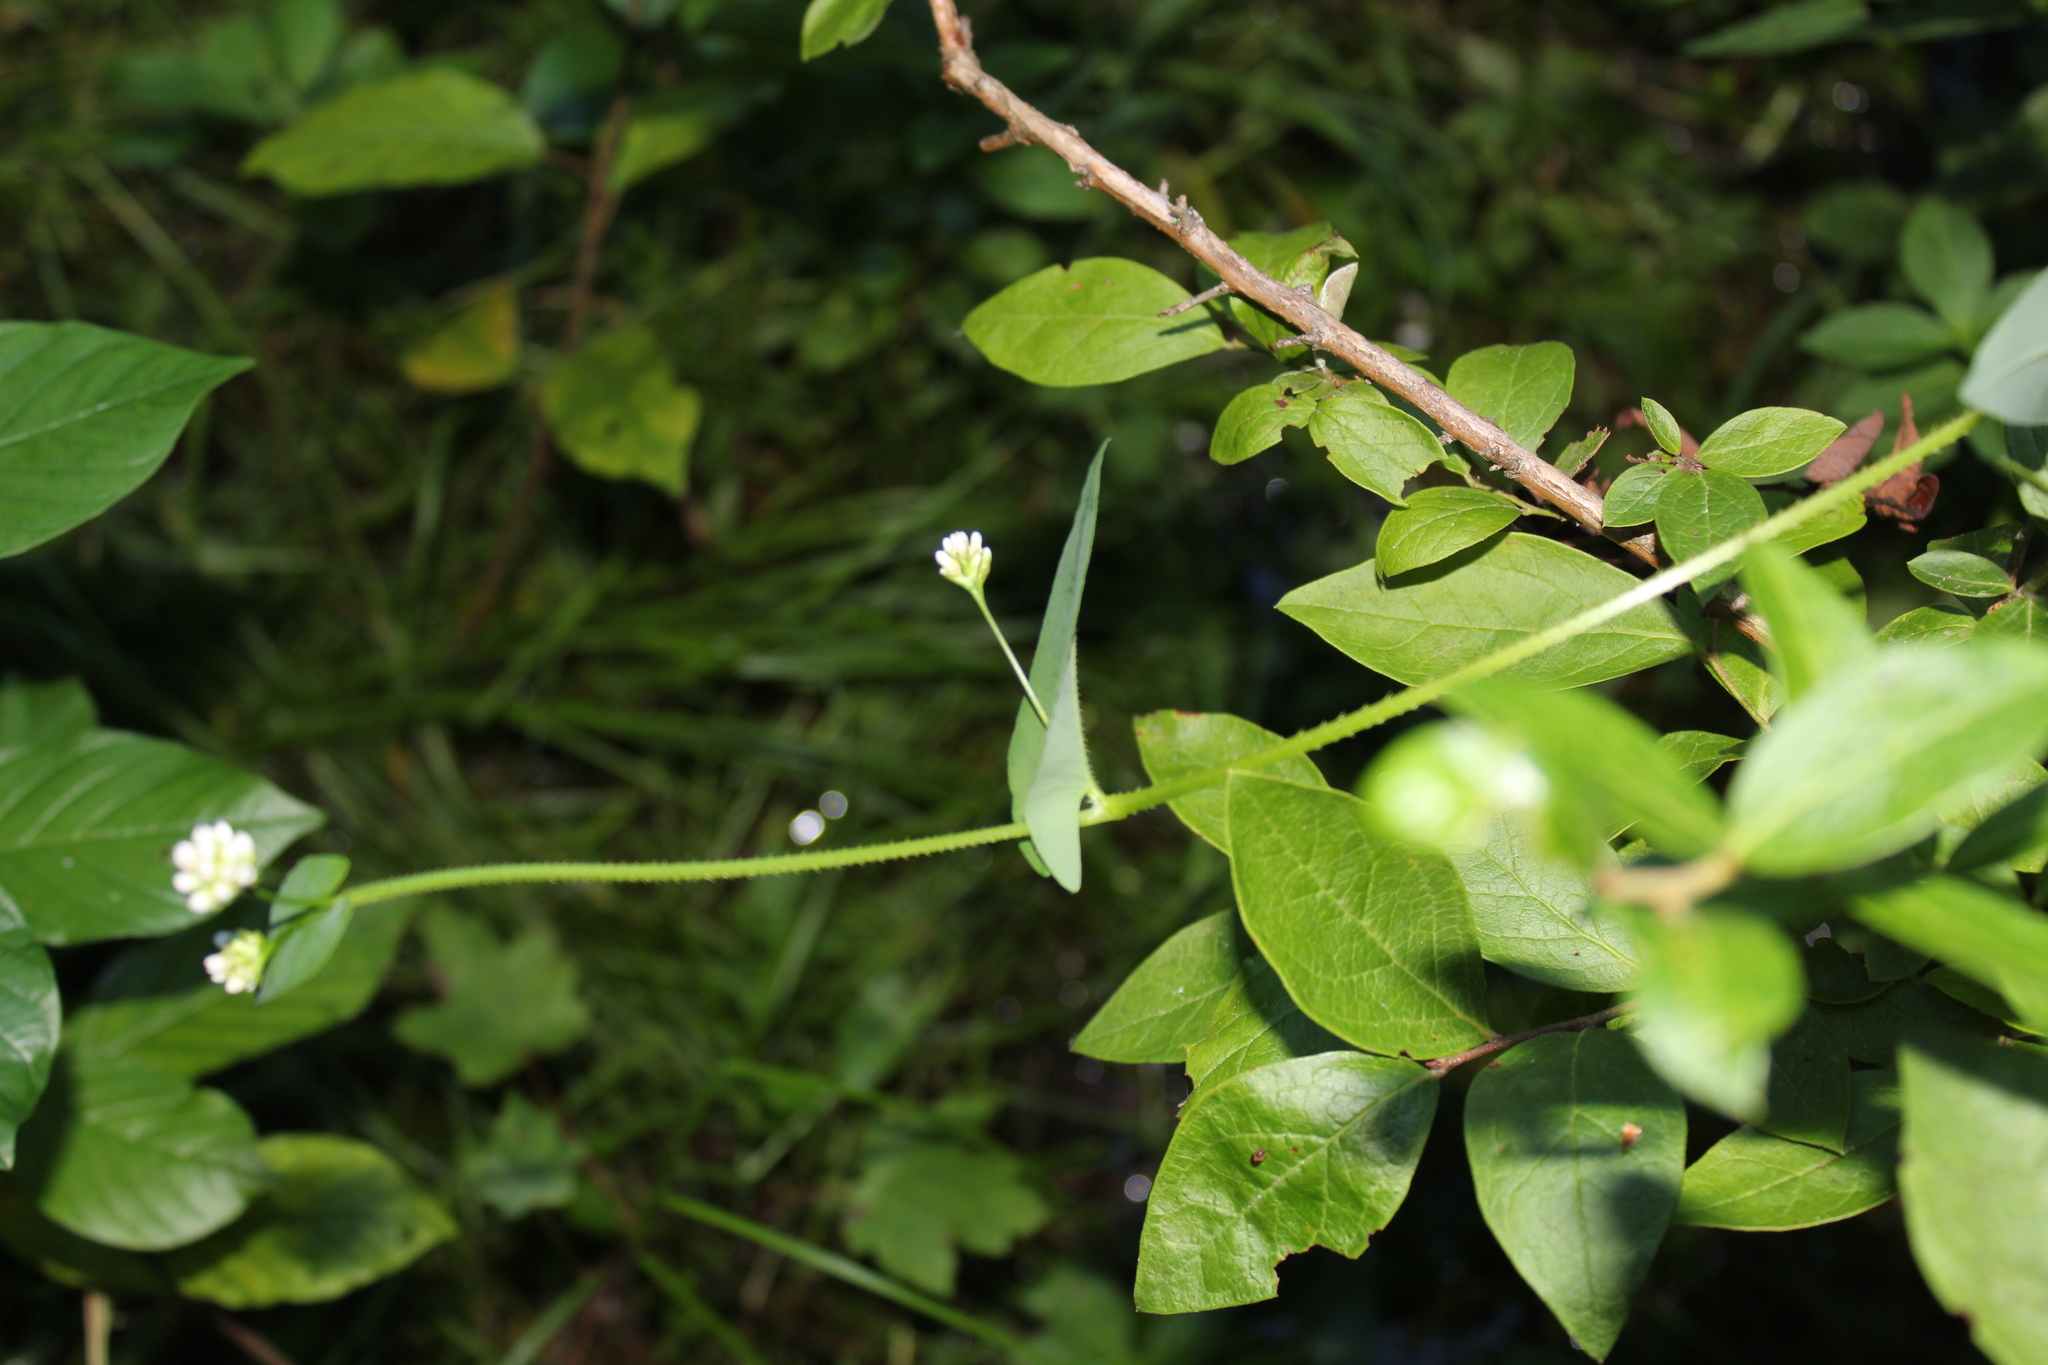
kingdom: Plantae
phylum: Tracheophyta
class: Magnoliopsida
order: Caryophyllales
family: Polygonaceae
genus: Persicaria
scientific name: Persicaria sagittata
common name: American tearthumb
